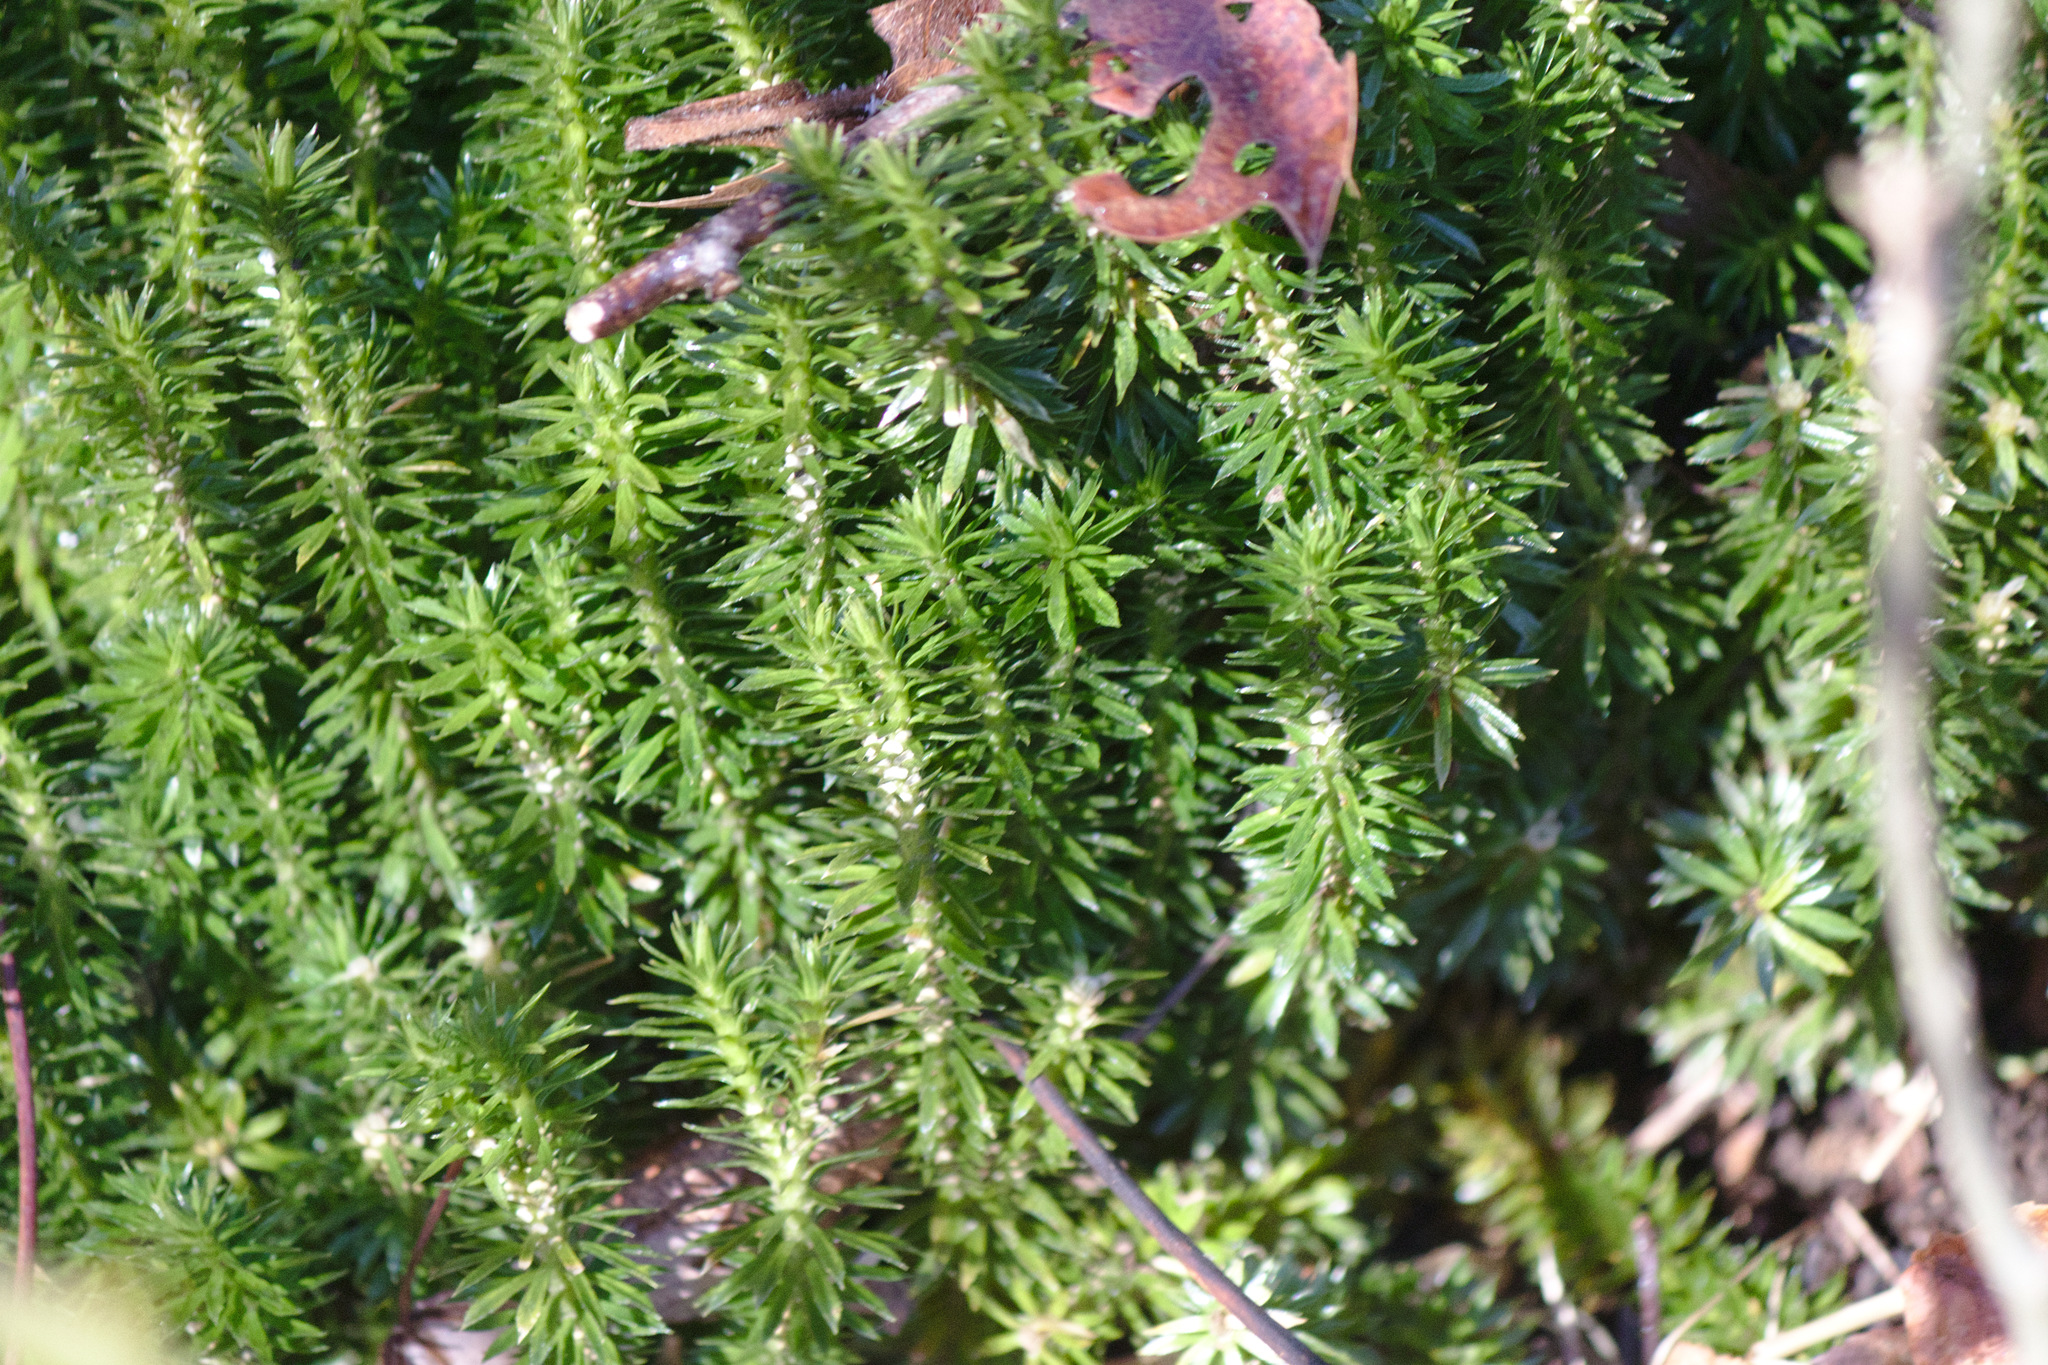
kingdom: Plantae
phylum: Tracheophyta
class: Lycopodiopsida
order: Lycopodiales
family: Lycopodiaceae
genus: Huperzia
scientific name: Huperzia lucidula
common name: Shining clubmoss
